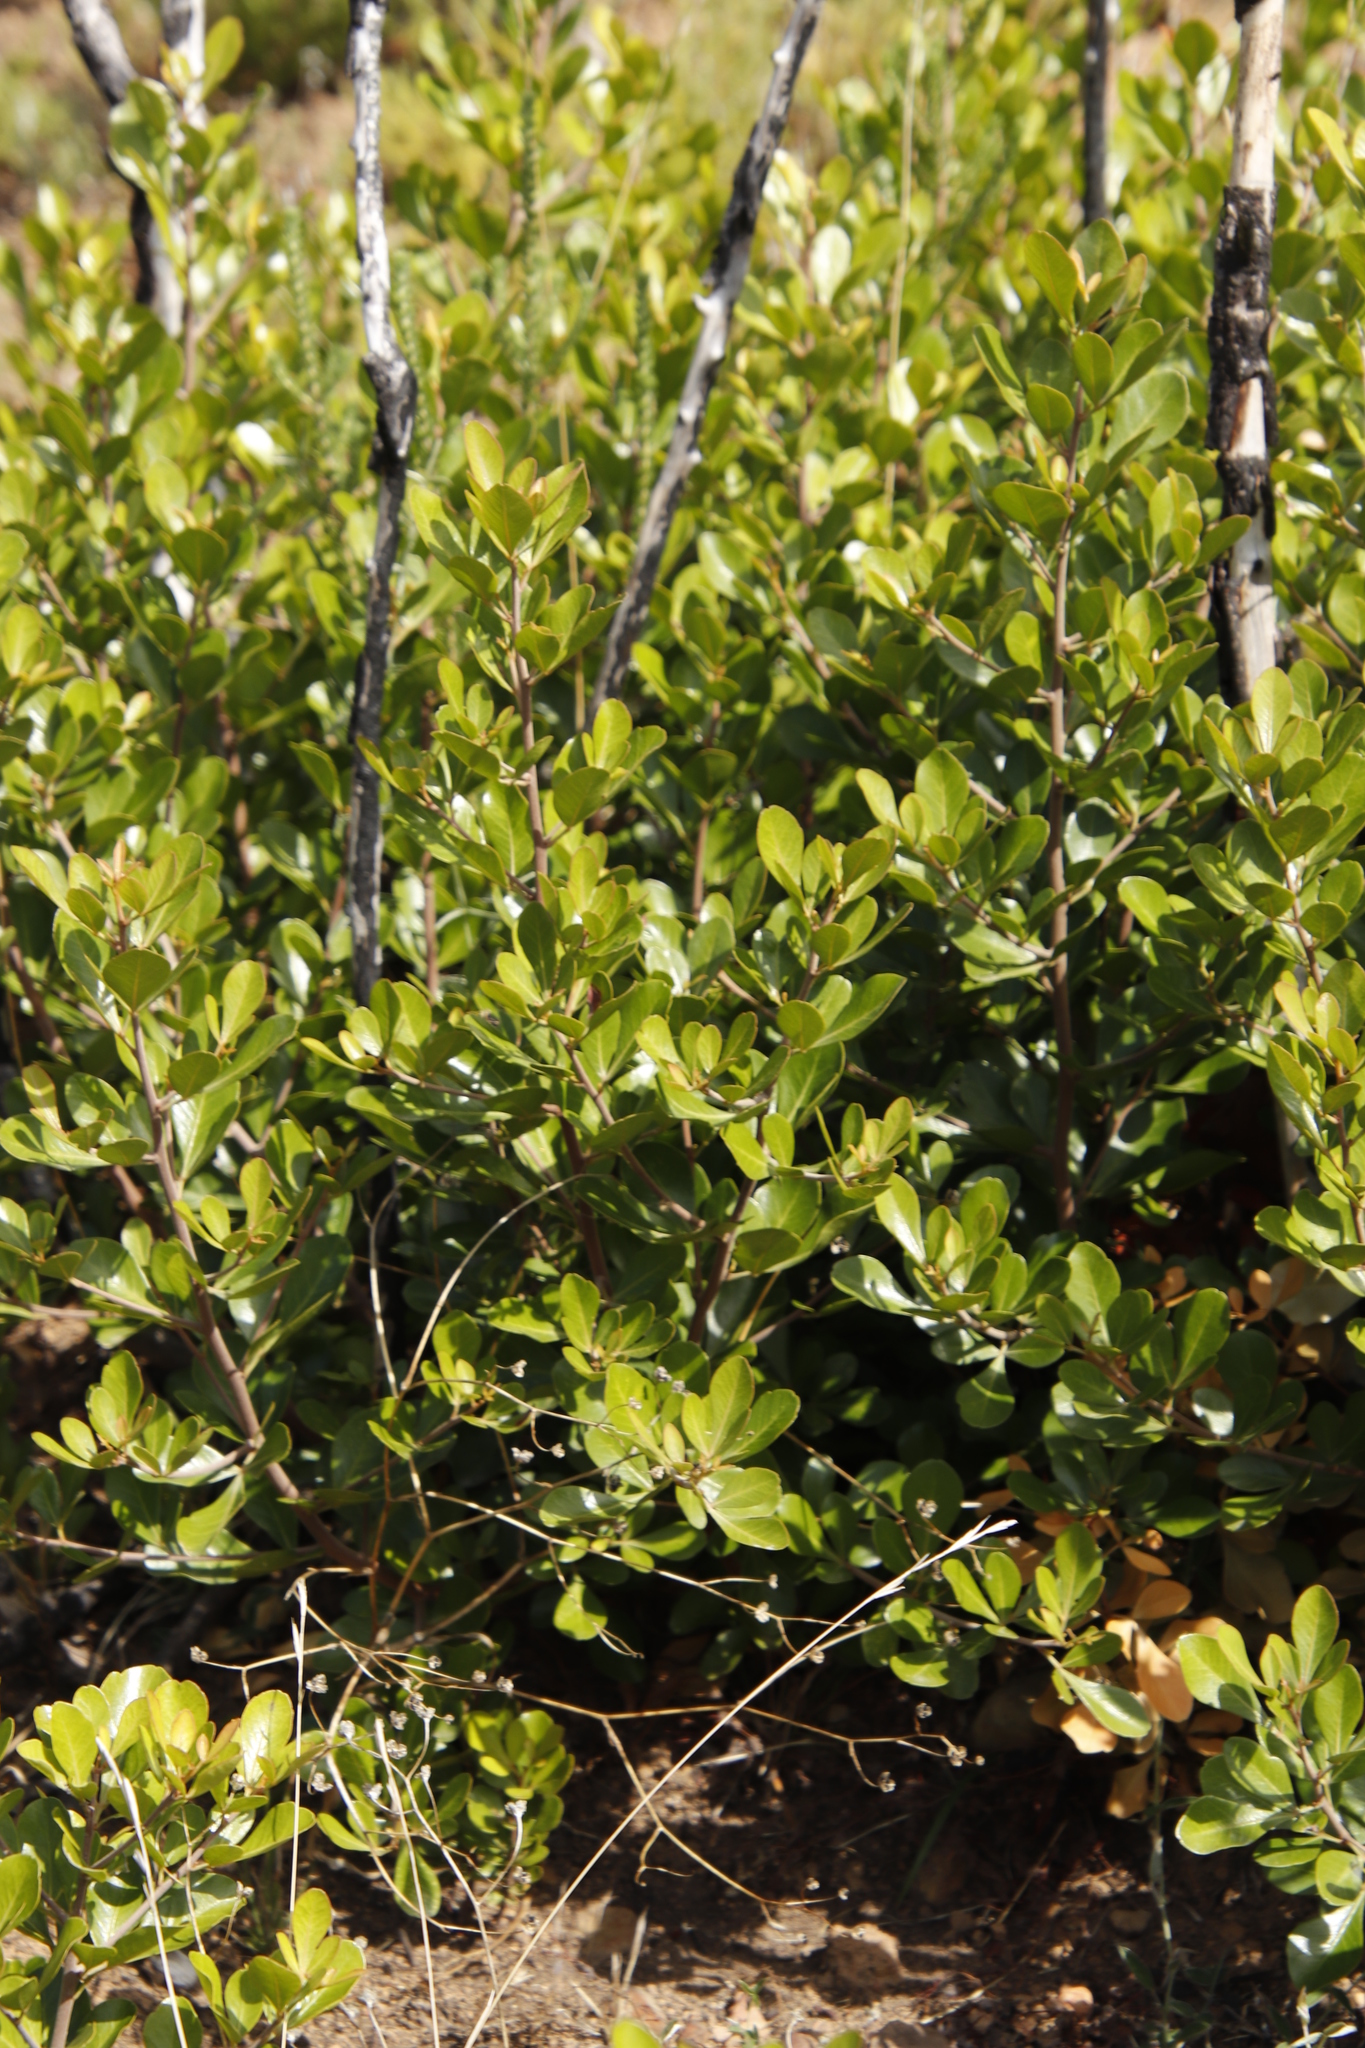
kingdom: Plantae
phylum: Tracheophyta
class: Magnoliopsida
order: Sapindales
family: Anacardiaceae
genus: Searsia
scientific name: Searsia lucida
